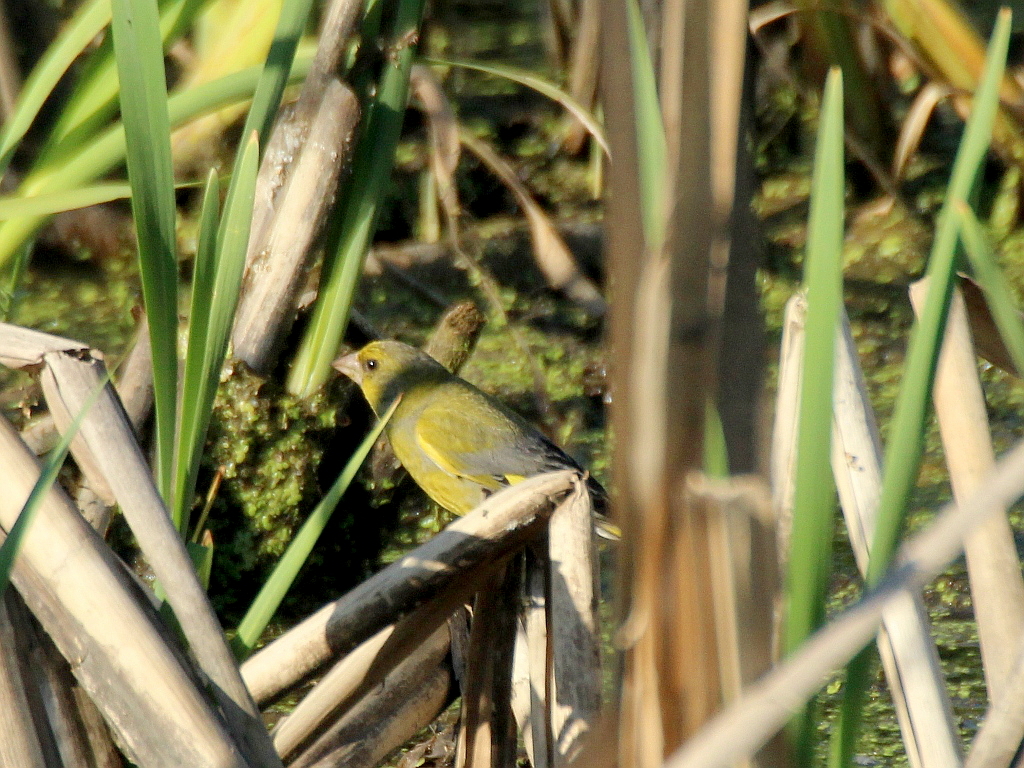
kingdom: Plantae
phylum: Tracheophyta
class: Liliopsida
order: Poales
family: Poaceae
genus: Chloris
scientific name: Chloris chloris
